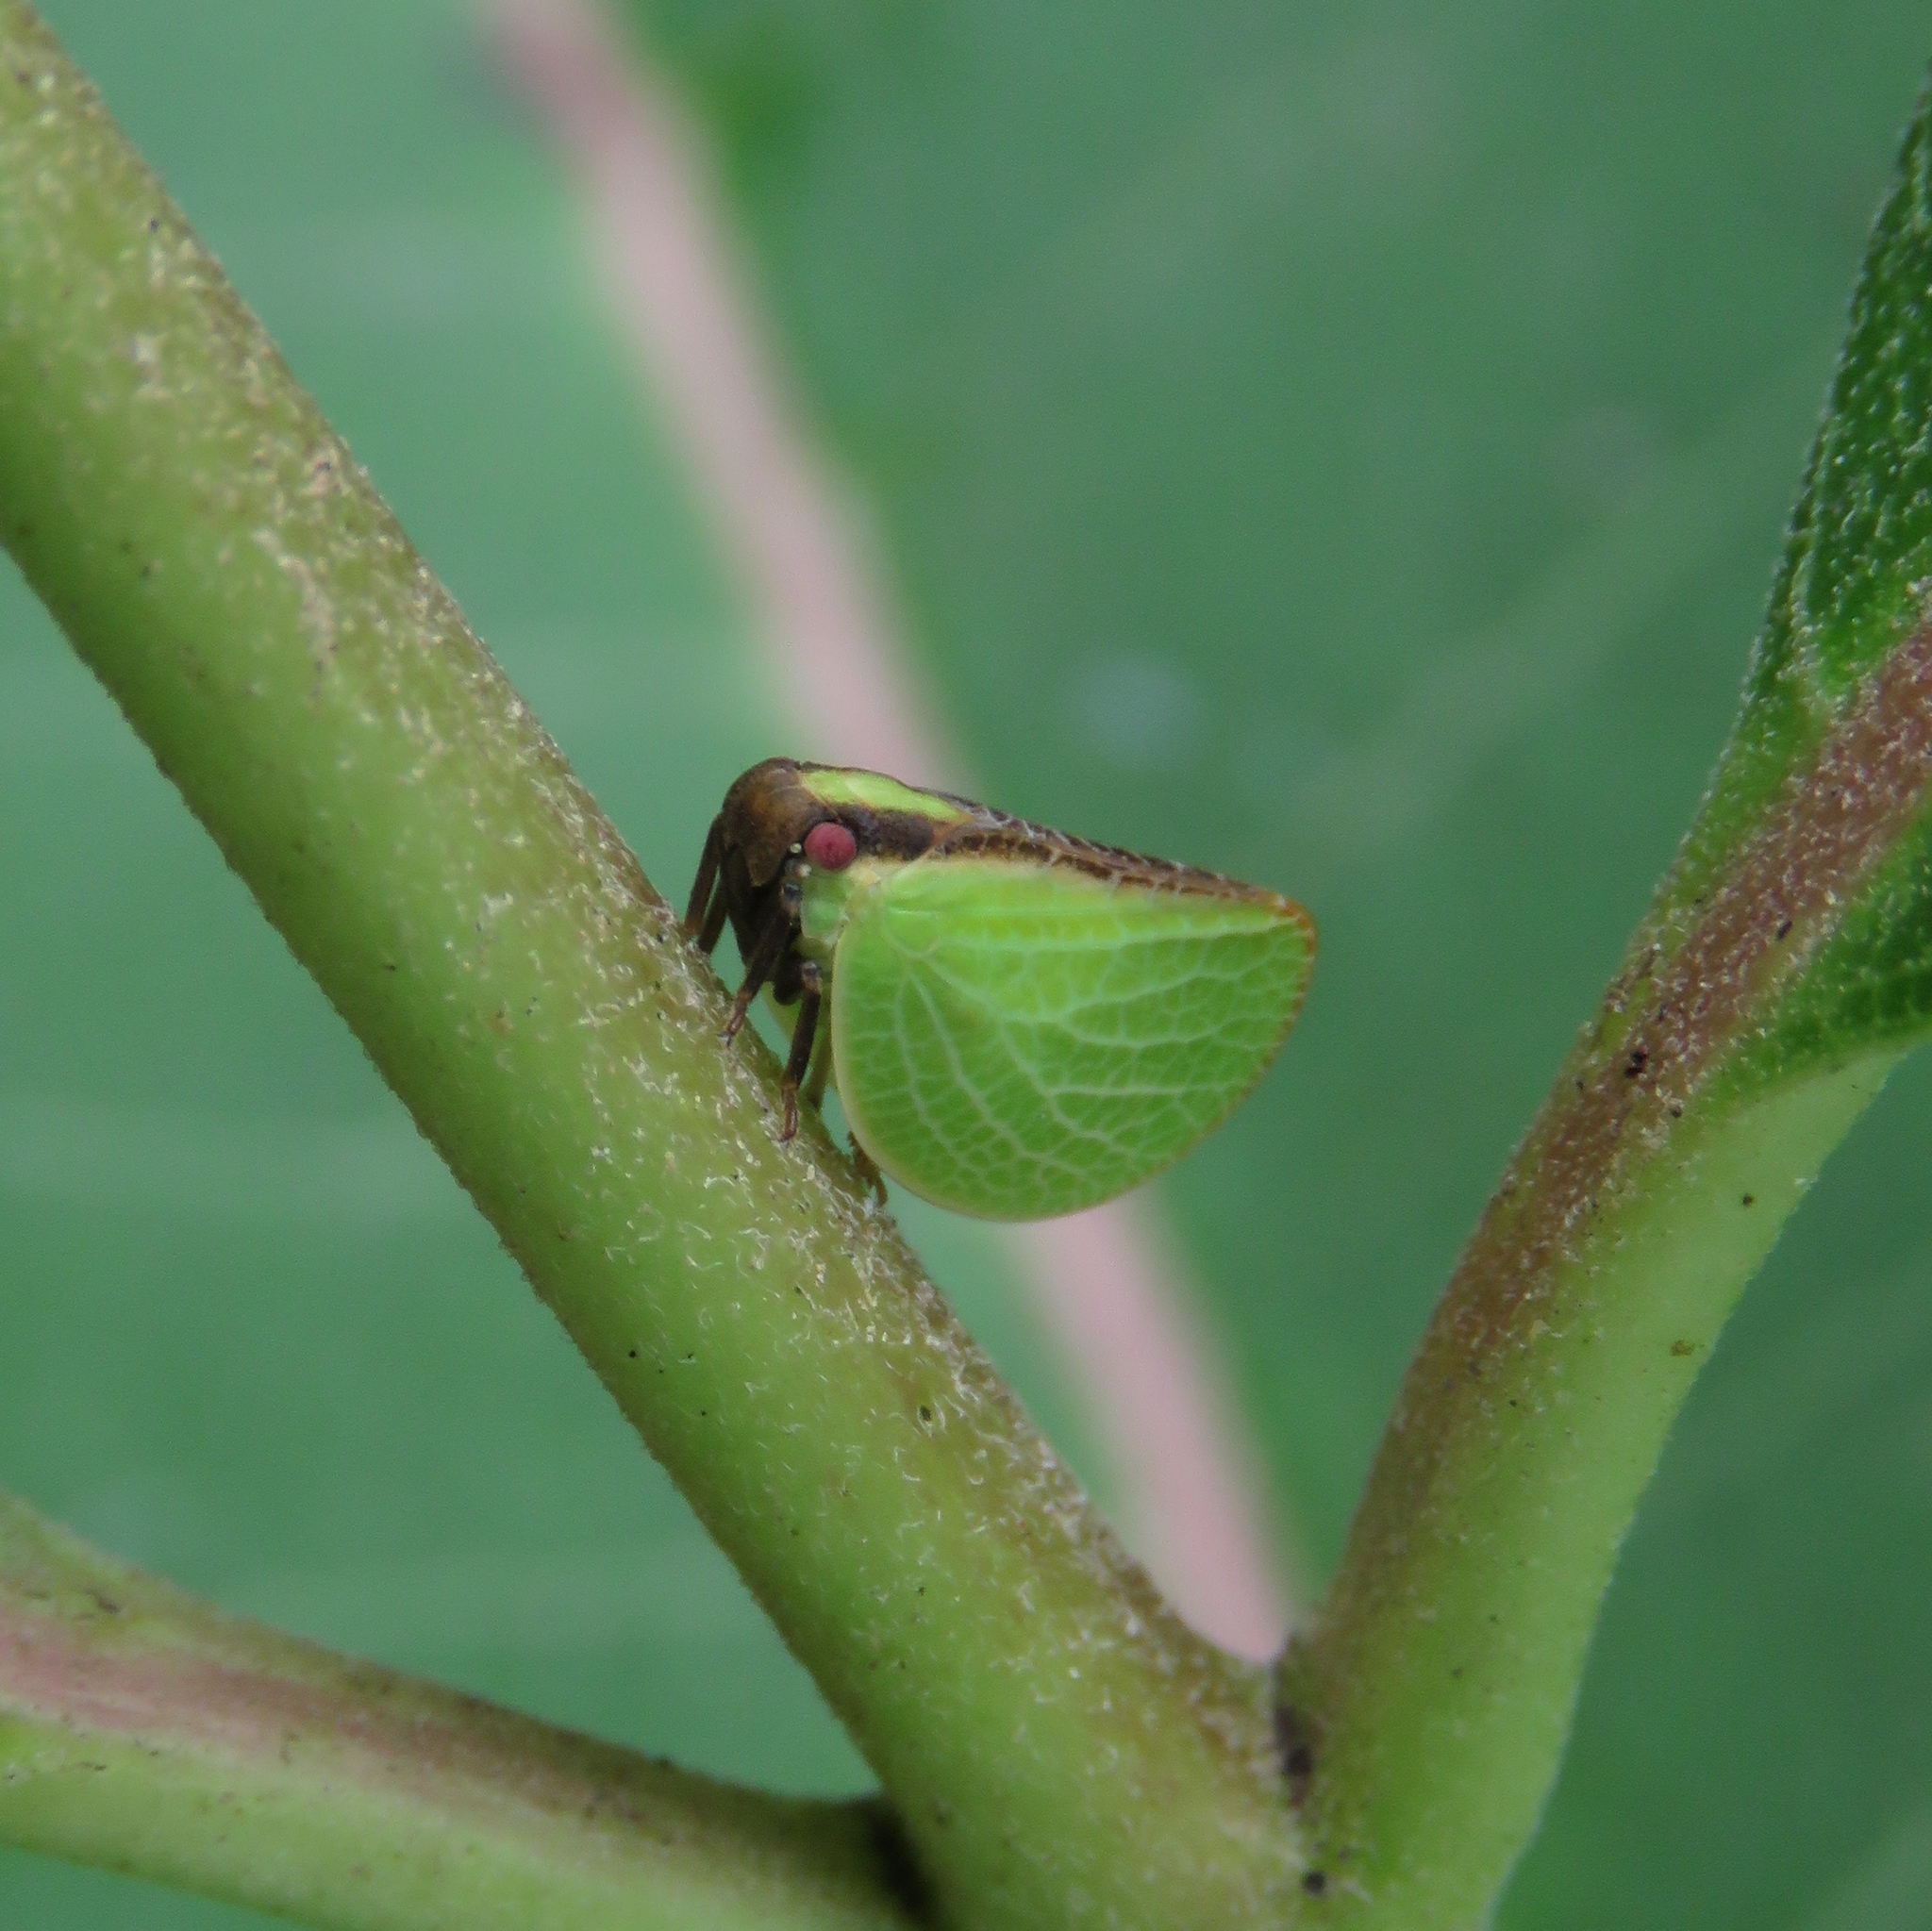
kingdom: Animalia
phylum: Arthropoda
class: Insecta
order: Hemiptera
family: Acanaloniidae
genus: Acanalonia
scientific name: Acanalonia bivittata
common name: Two-striped planthopper
